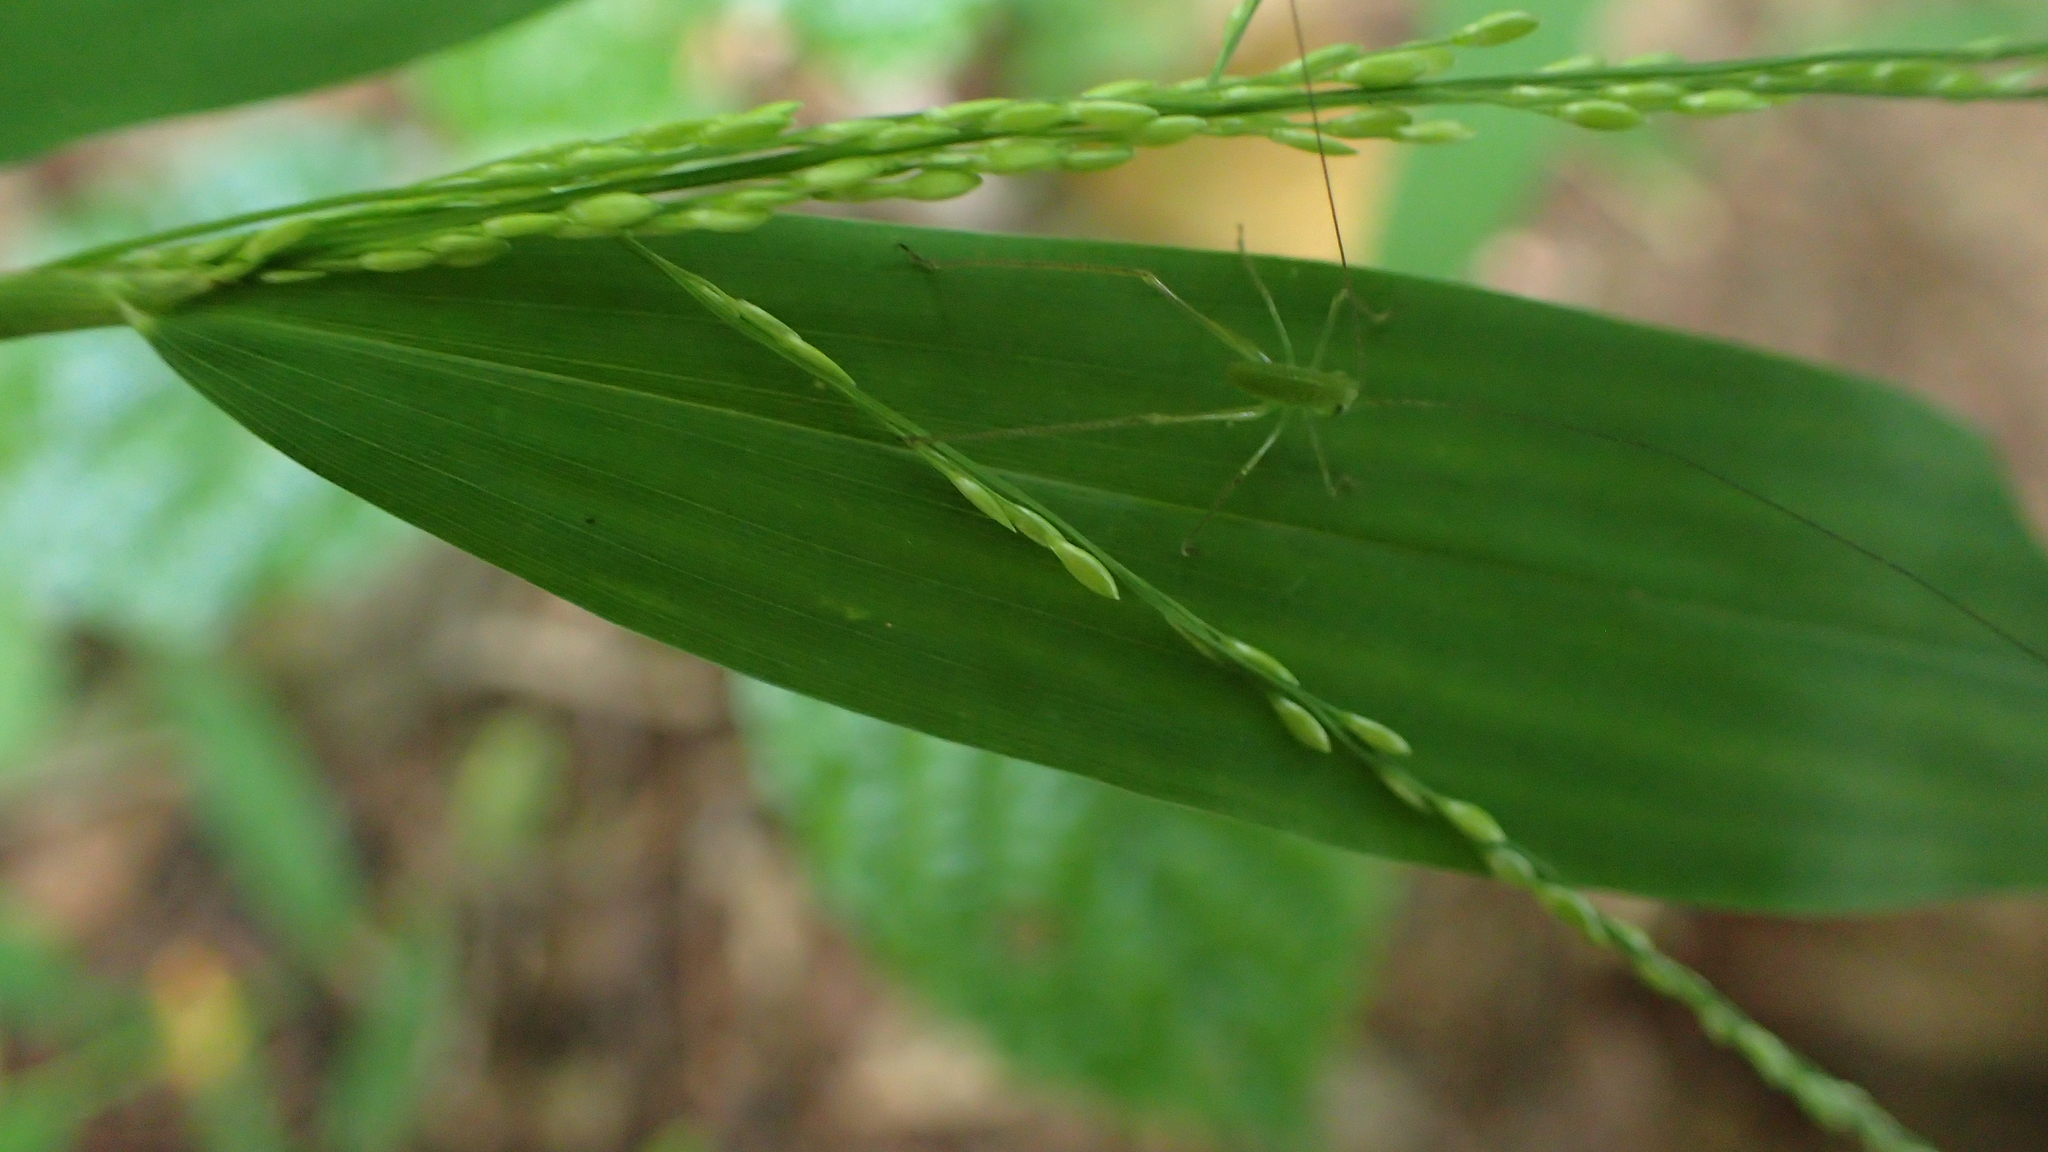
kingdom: Plantae
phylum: Tracheophyta
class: Liliopsida
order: Poales
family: Poaceae
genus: Panicum
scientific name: Panicum comorense
